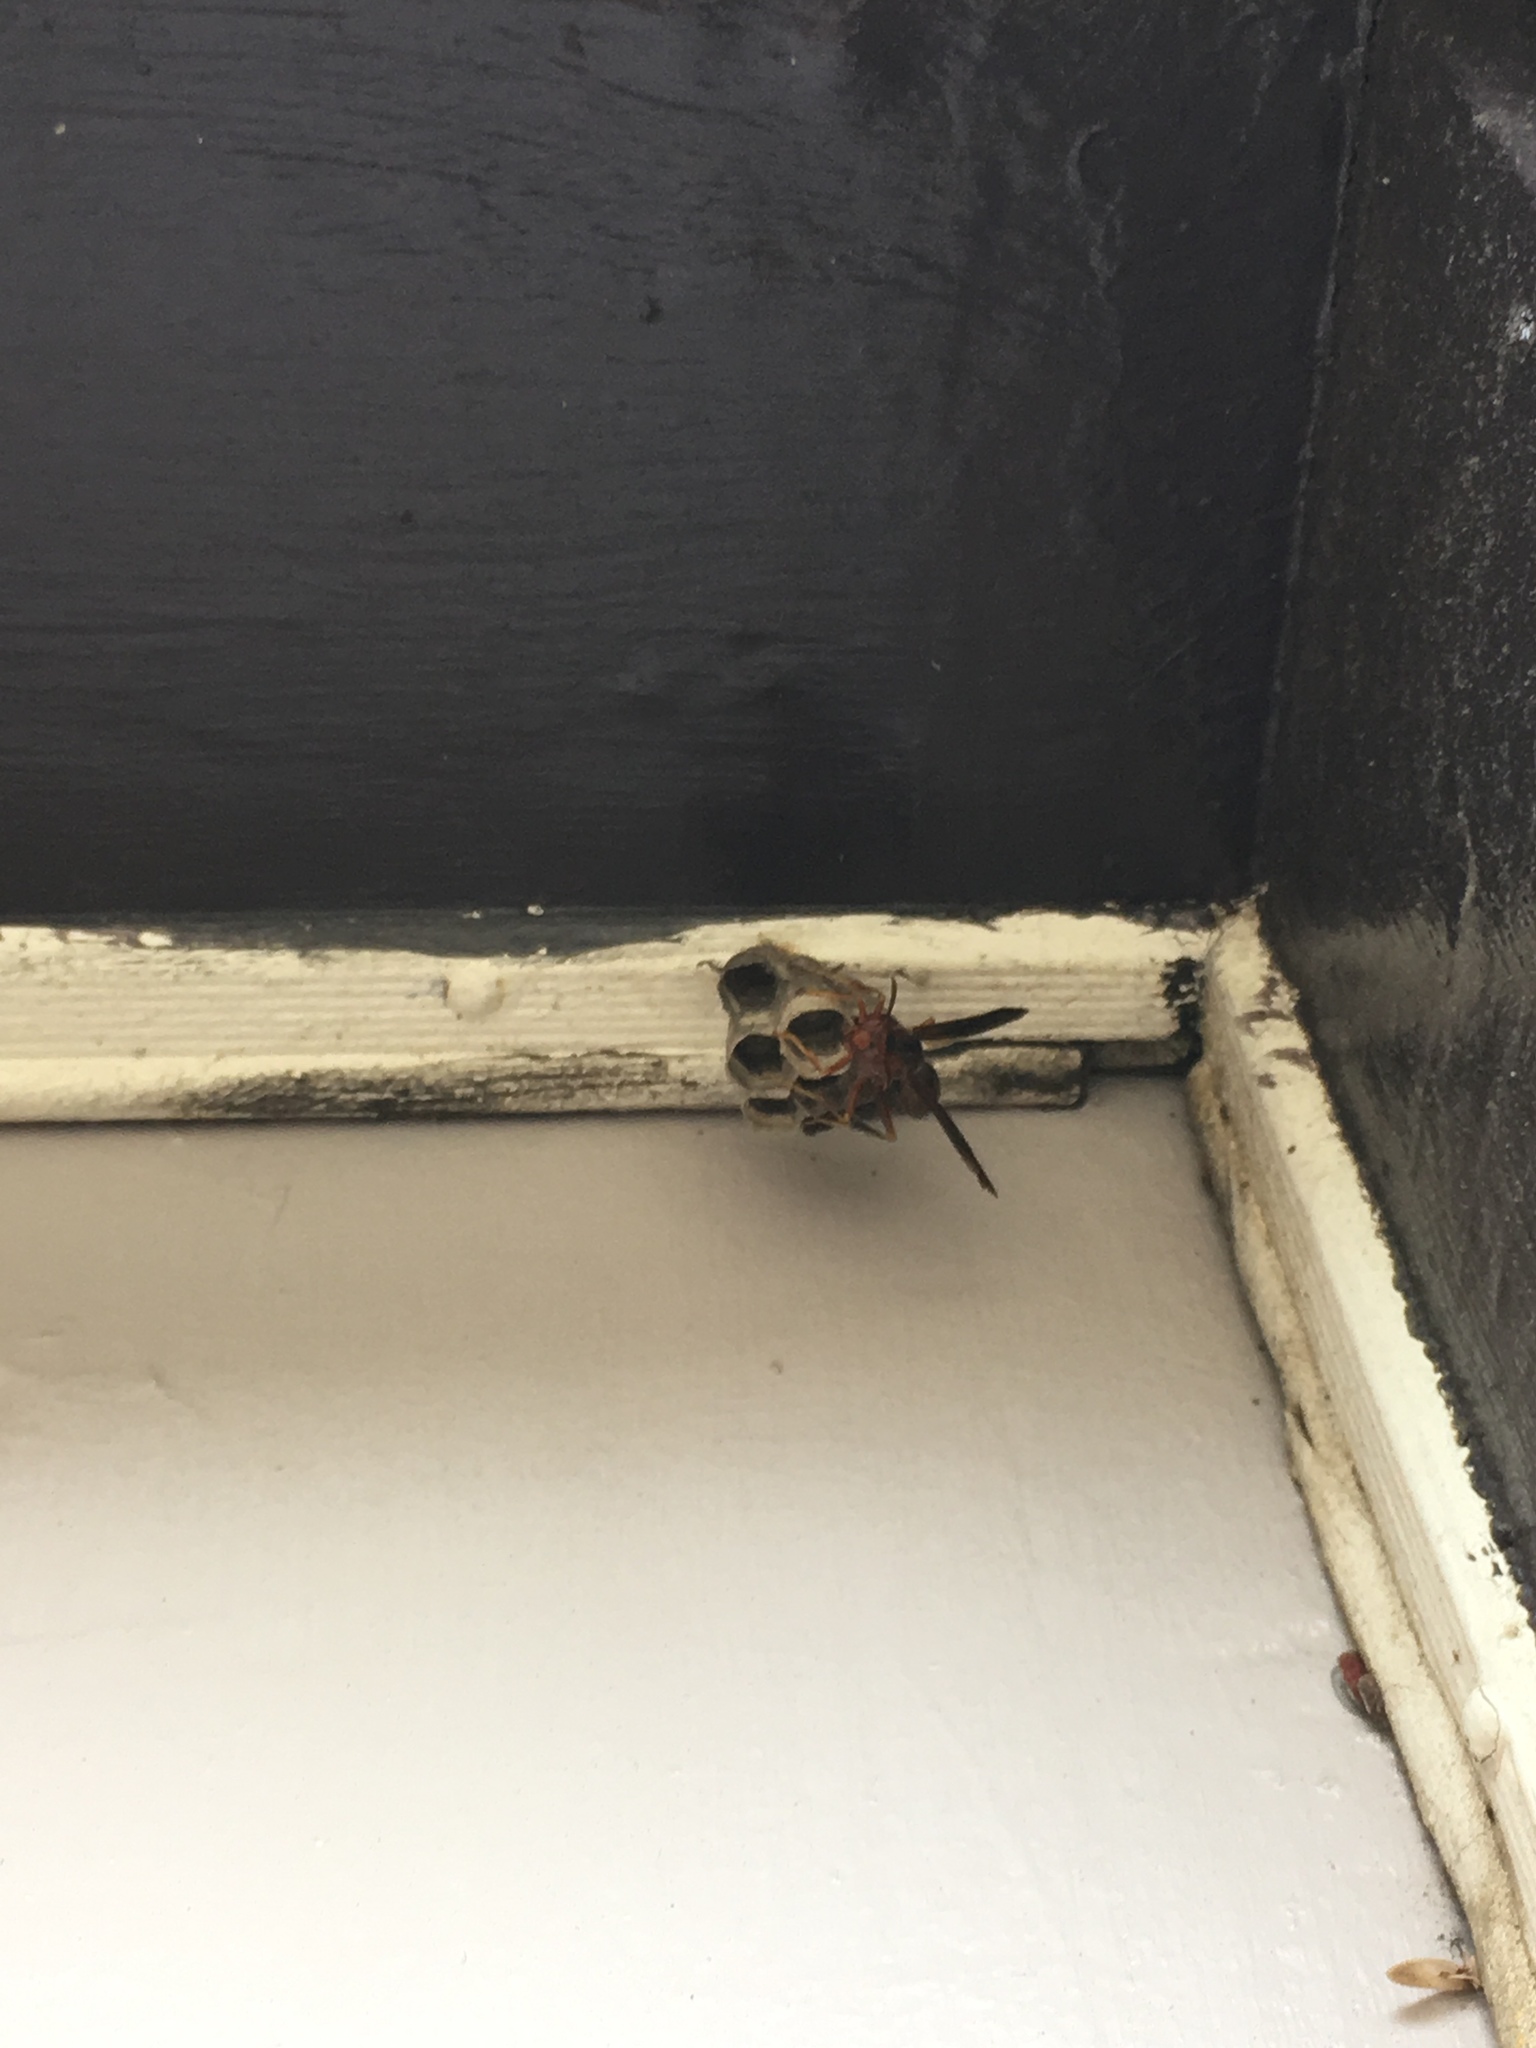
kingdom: Animalia
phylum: Arthropoda
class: Insecta
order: Hymenoptera
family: Vespidae
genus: Fuscopolistes
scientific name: Fuscopolistes
